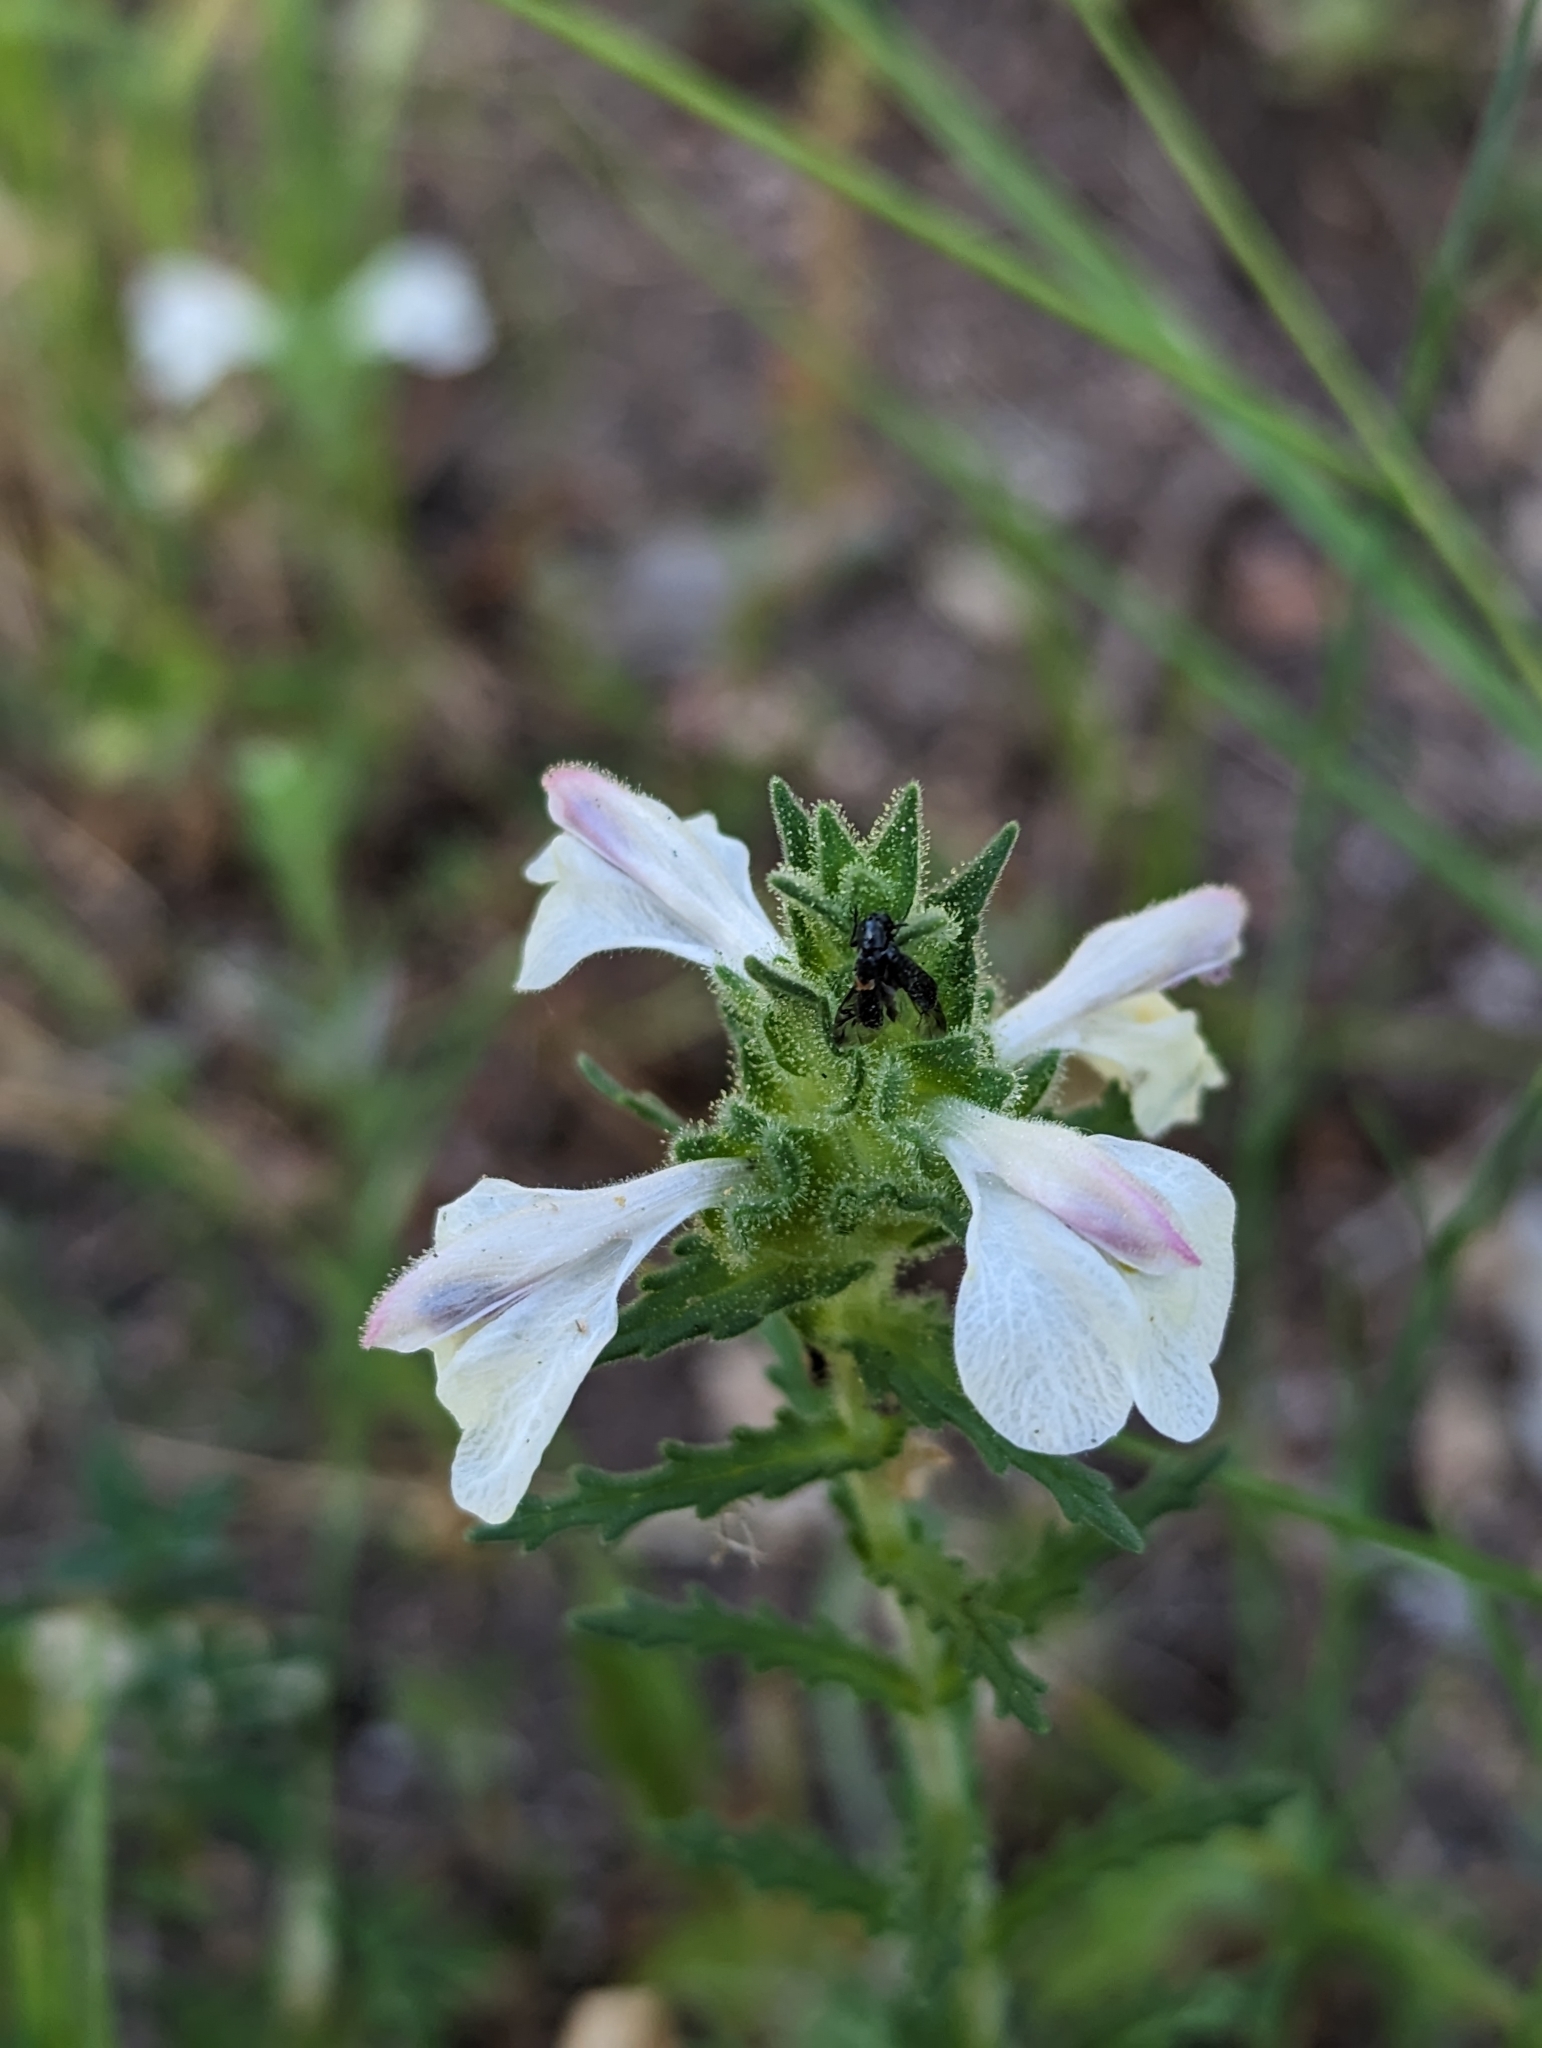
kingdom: Plantae
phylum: Tracheophyta
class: Magnoliopsida
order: Lamiales
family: Orobanchaceae
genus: Bellardia
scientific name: Bellardia trixago
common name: Mediterranean lineseed
